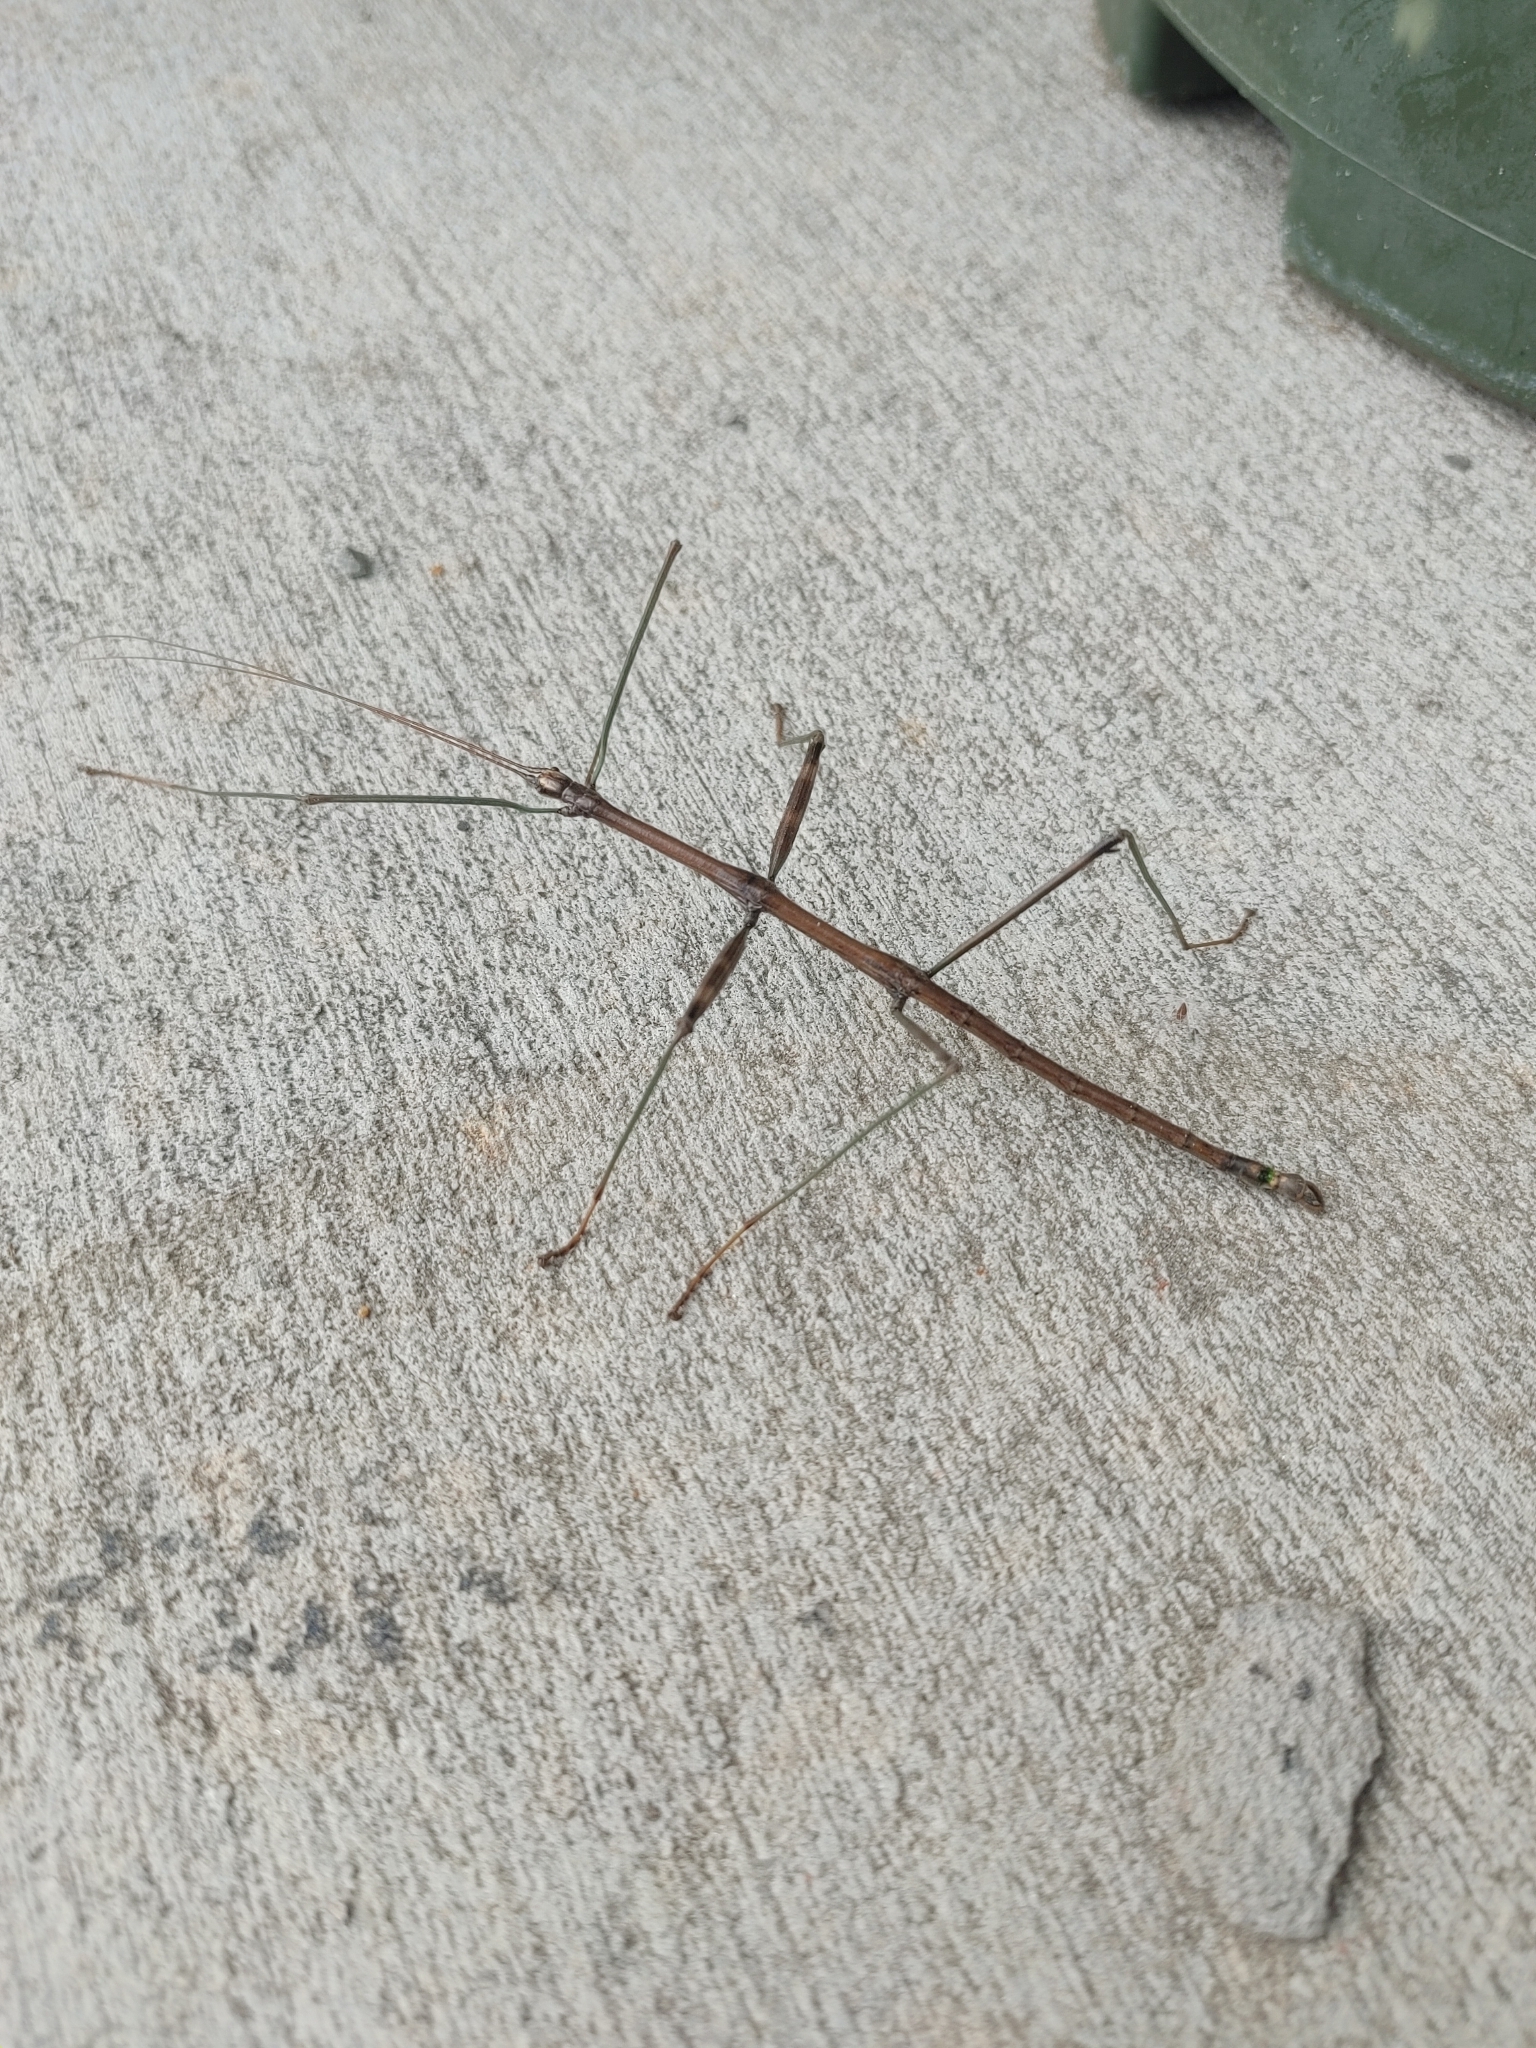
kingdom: Animalia
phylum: Arthropoda
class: Insecta
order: Phasmida
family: Diapheromeridae
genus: Diapheromera
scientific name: Diapheromera femorata
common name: Common american walkingstick
